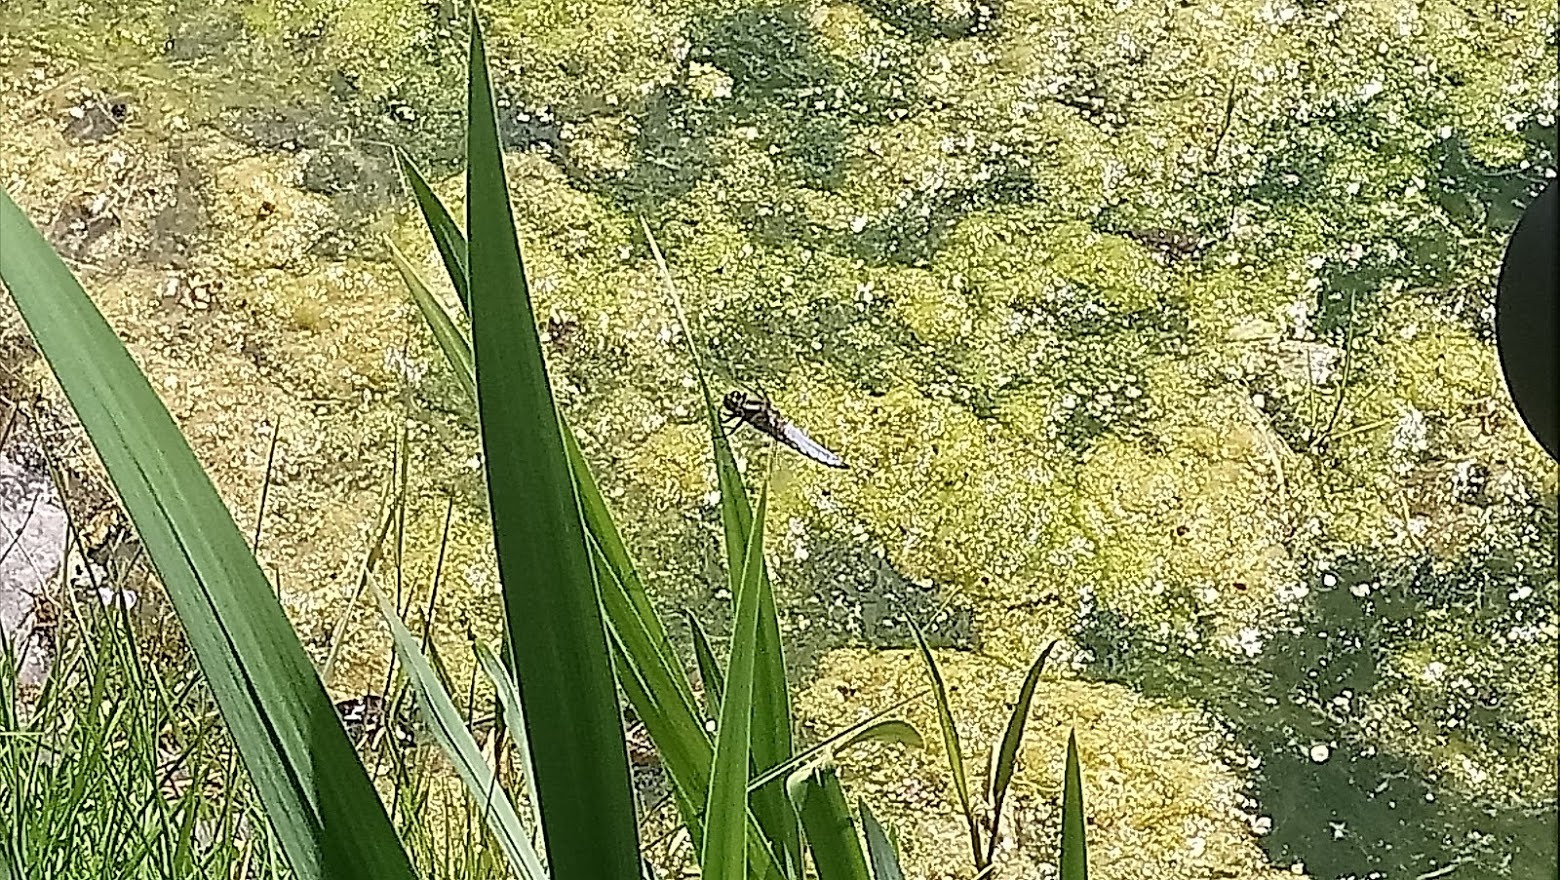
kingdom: Animalia
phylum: Arthropoda
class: Insecta
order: Odonata
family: Libellulidae
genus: Libellula
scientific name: Libellula depressa
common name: Broad-bodied chaser
